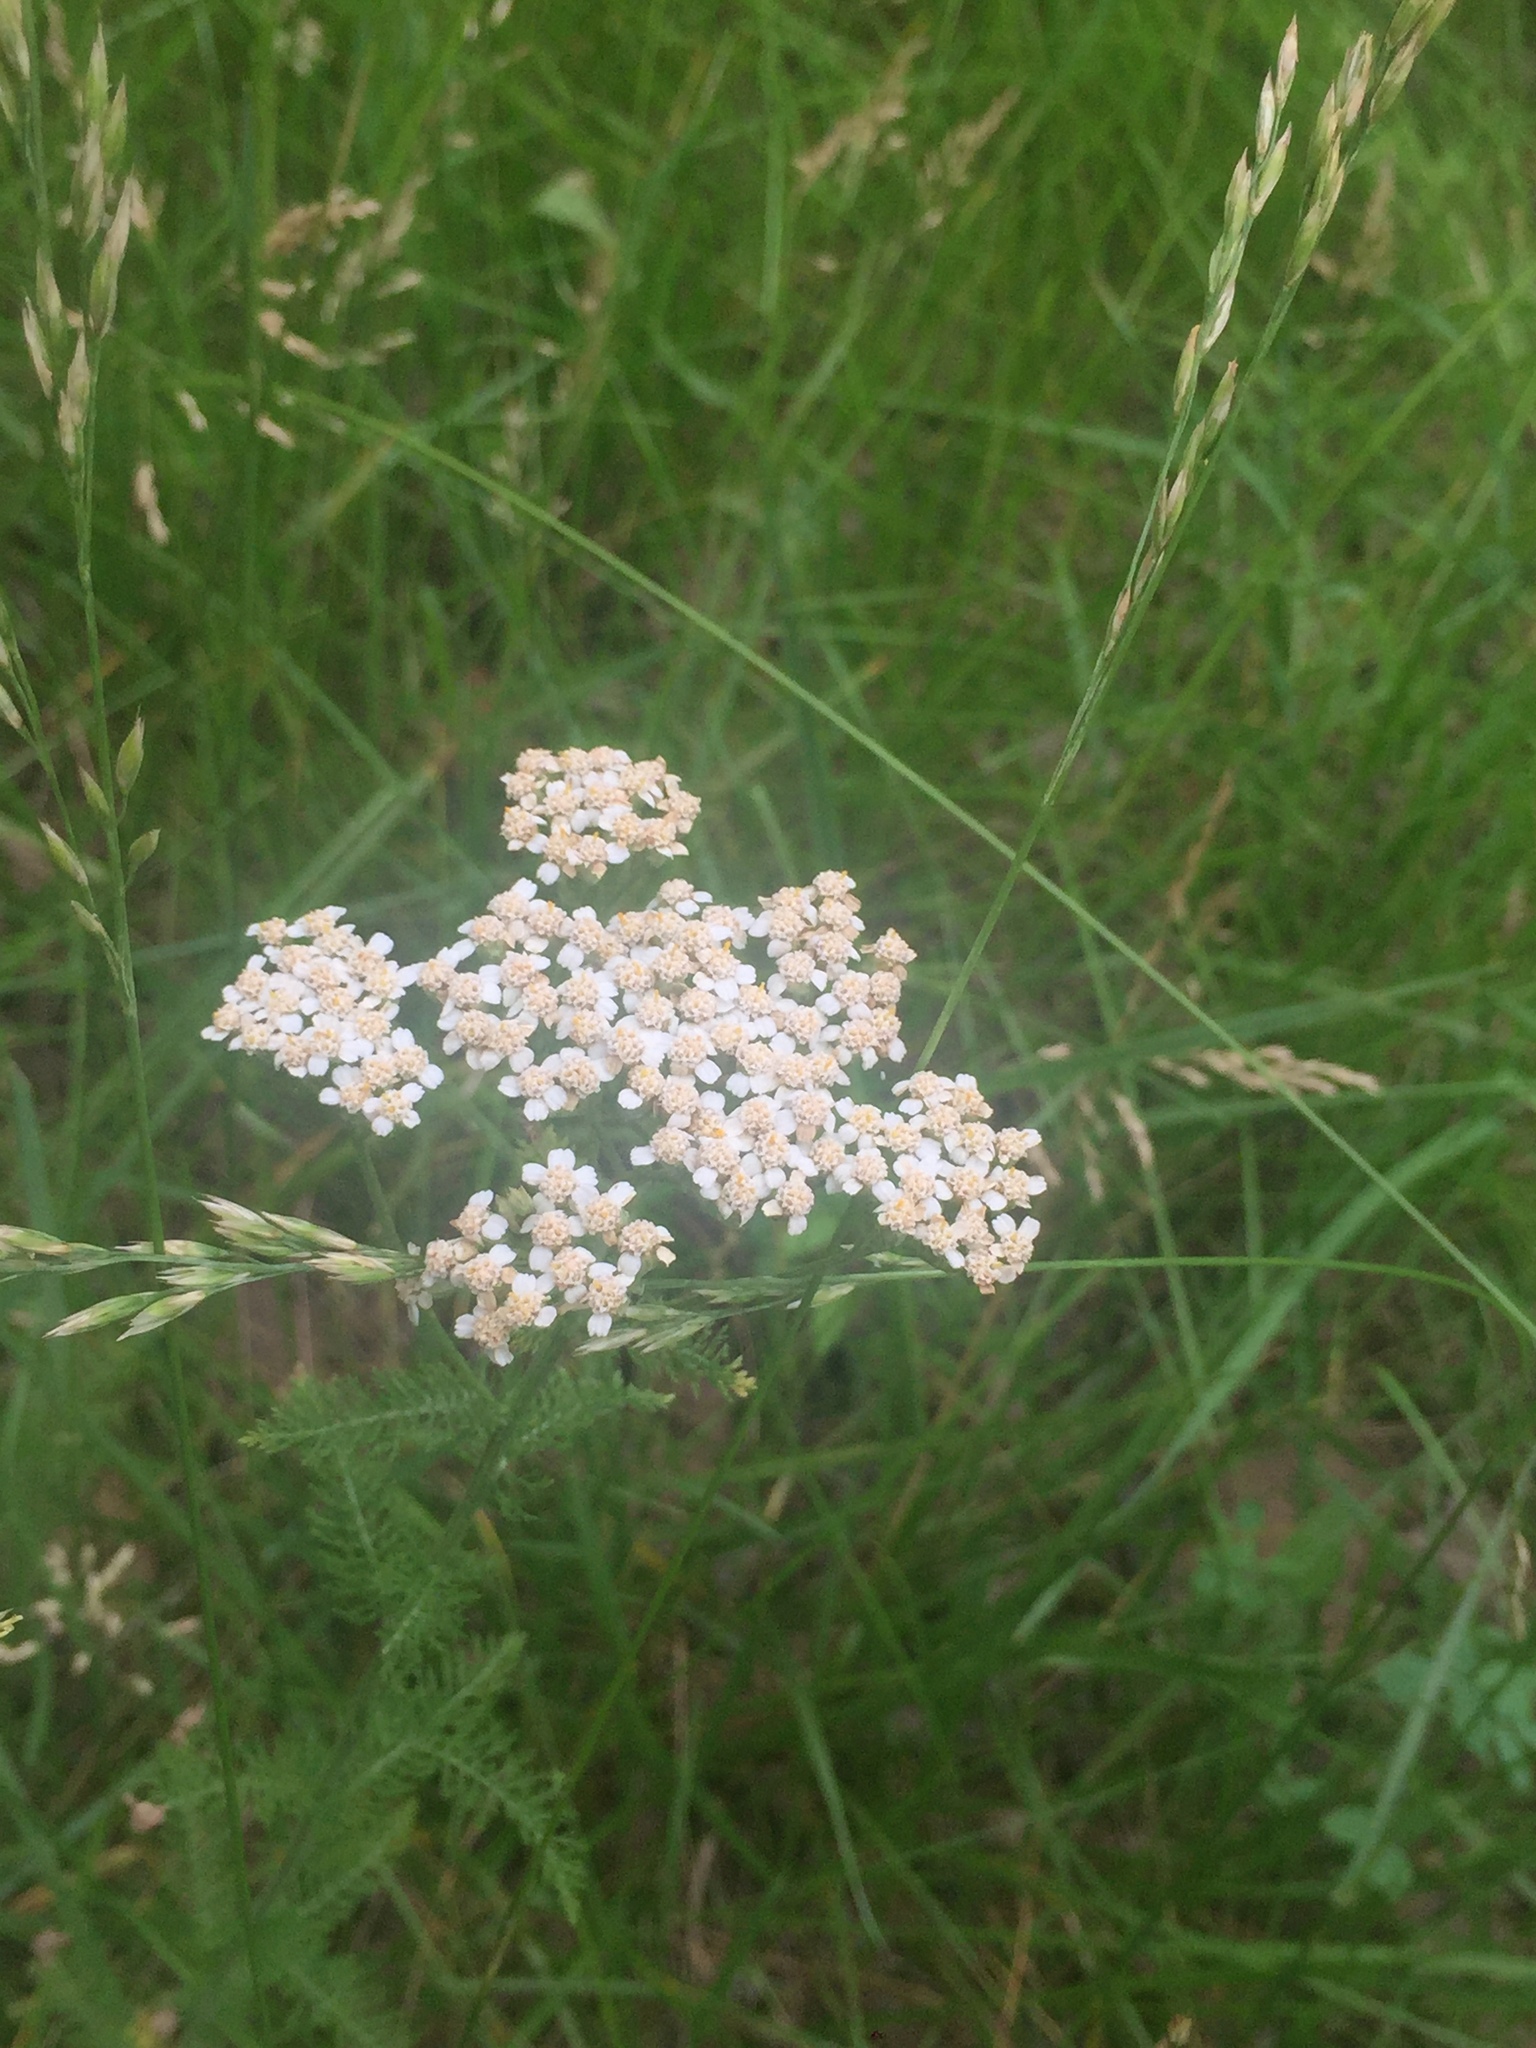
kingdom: Plantae
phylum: Tracheophyta
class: Magnoliopsida
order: Asterales
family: Asteraceae
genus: Achillea
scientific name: Achillea millefolium
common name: Yarrow
